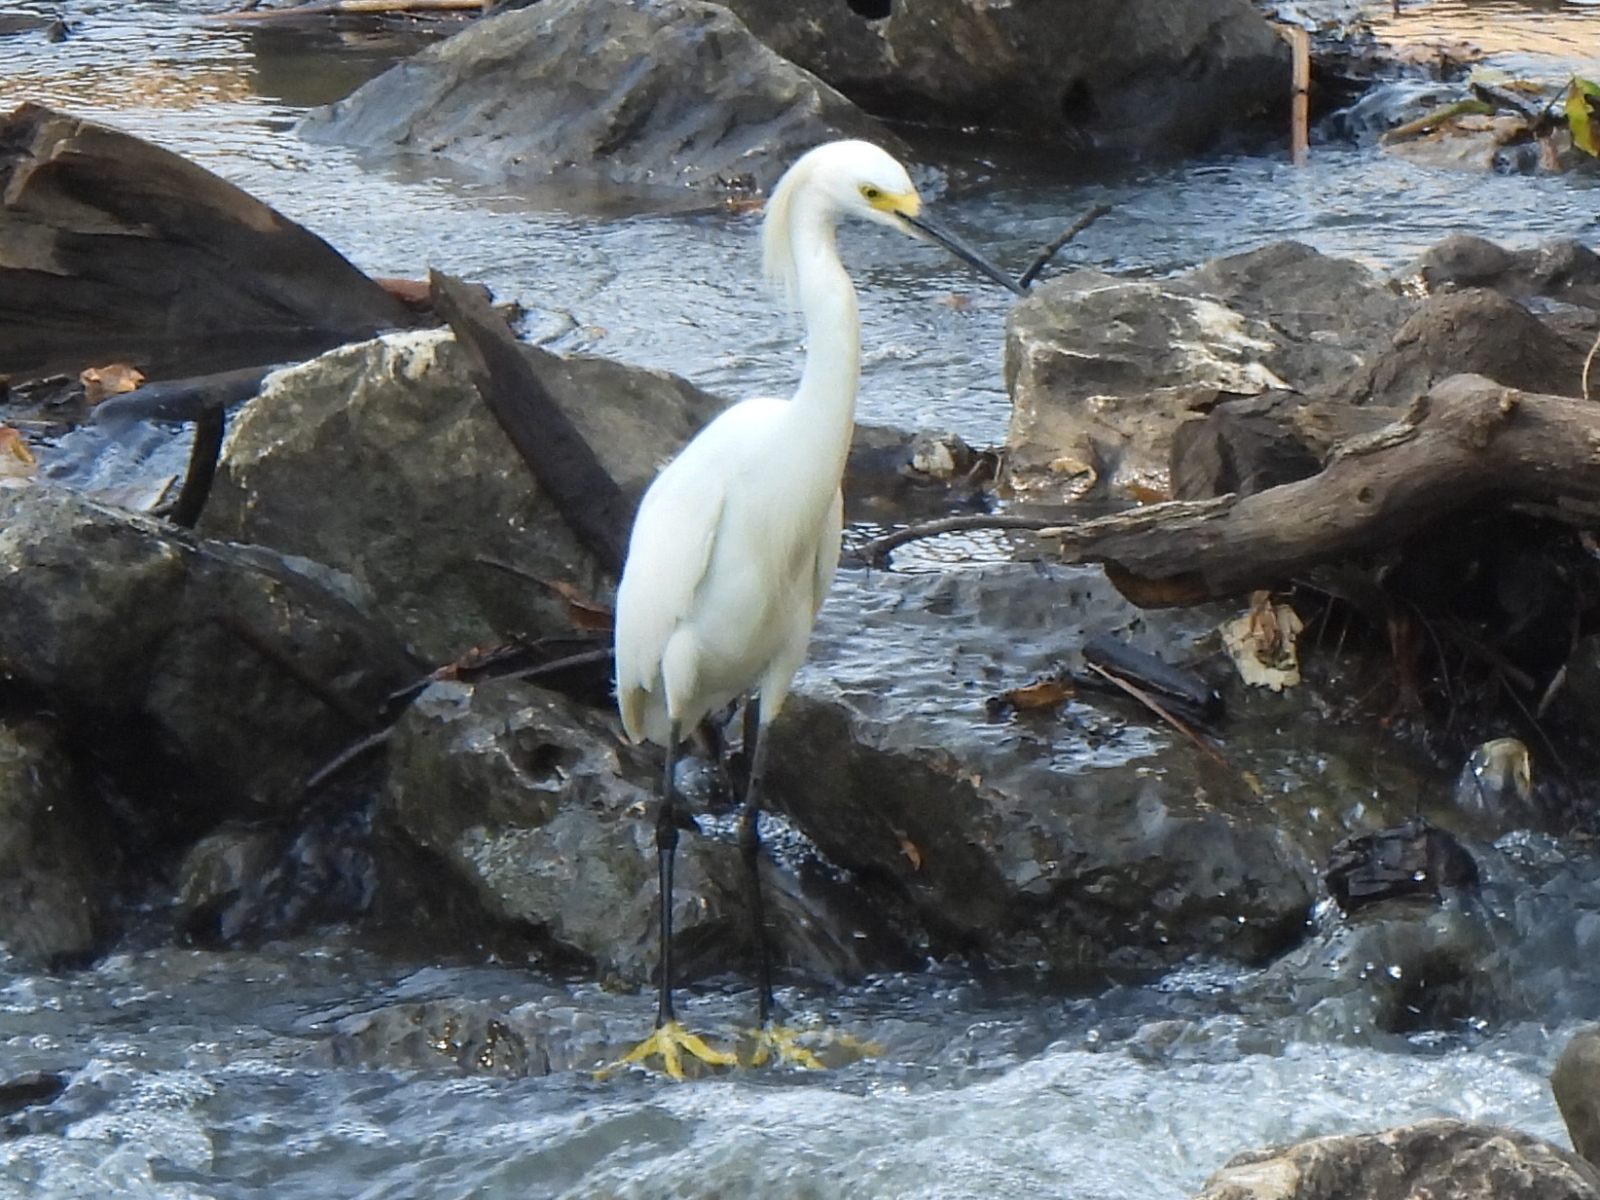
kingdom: Animalia
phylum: Chordata
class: Aves
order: Pelecaniformes
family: Ardeidae
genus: Egretta
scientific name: Egretta thula
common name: Snowy egret
